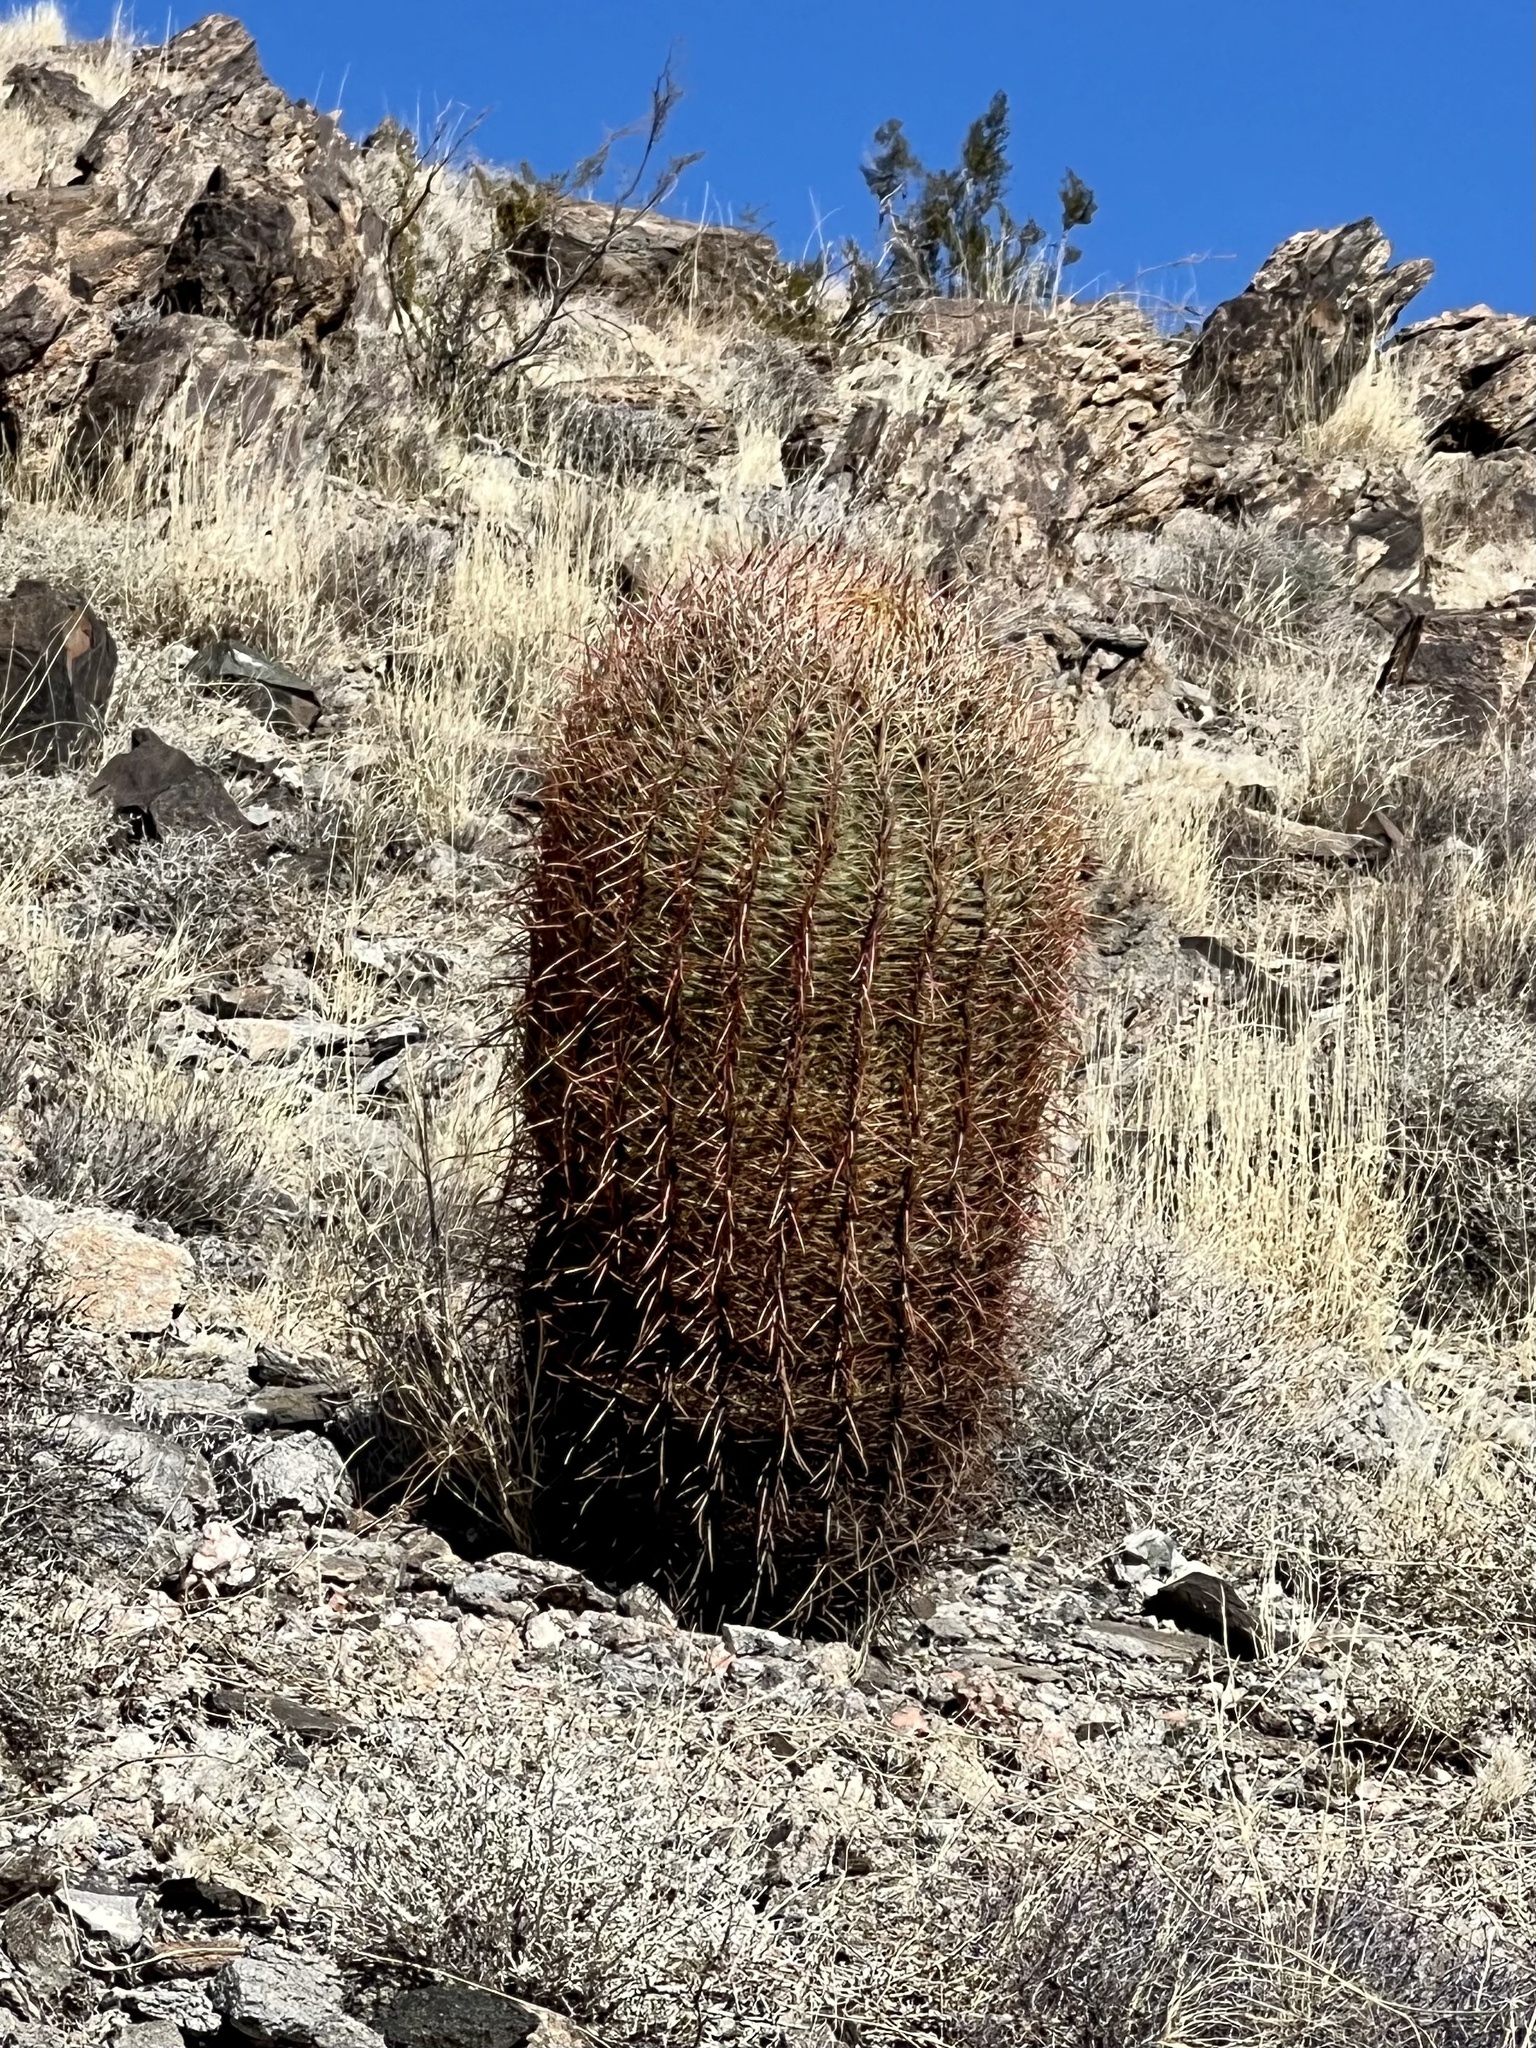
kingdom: Plantae
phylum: Tracheophyta
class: Magnoliopsida
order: Caryophyllales
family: Cactaceae
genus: Ferocactus
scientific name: Ferocactus cylindraceus
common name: California barrel cactus
